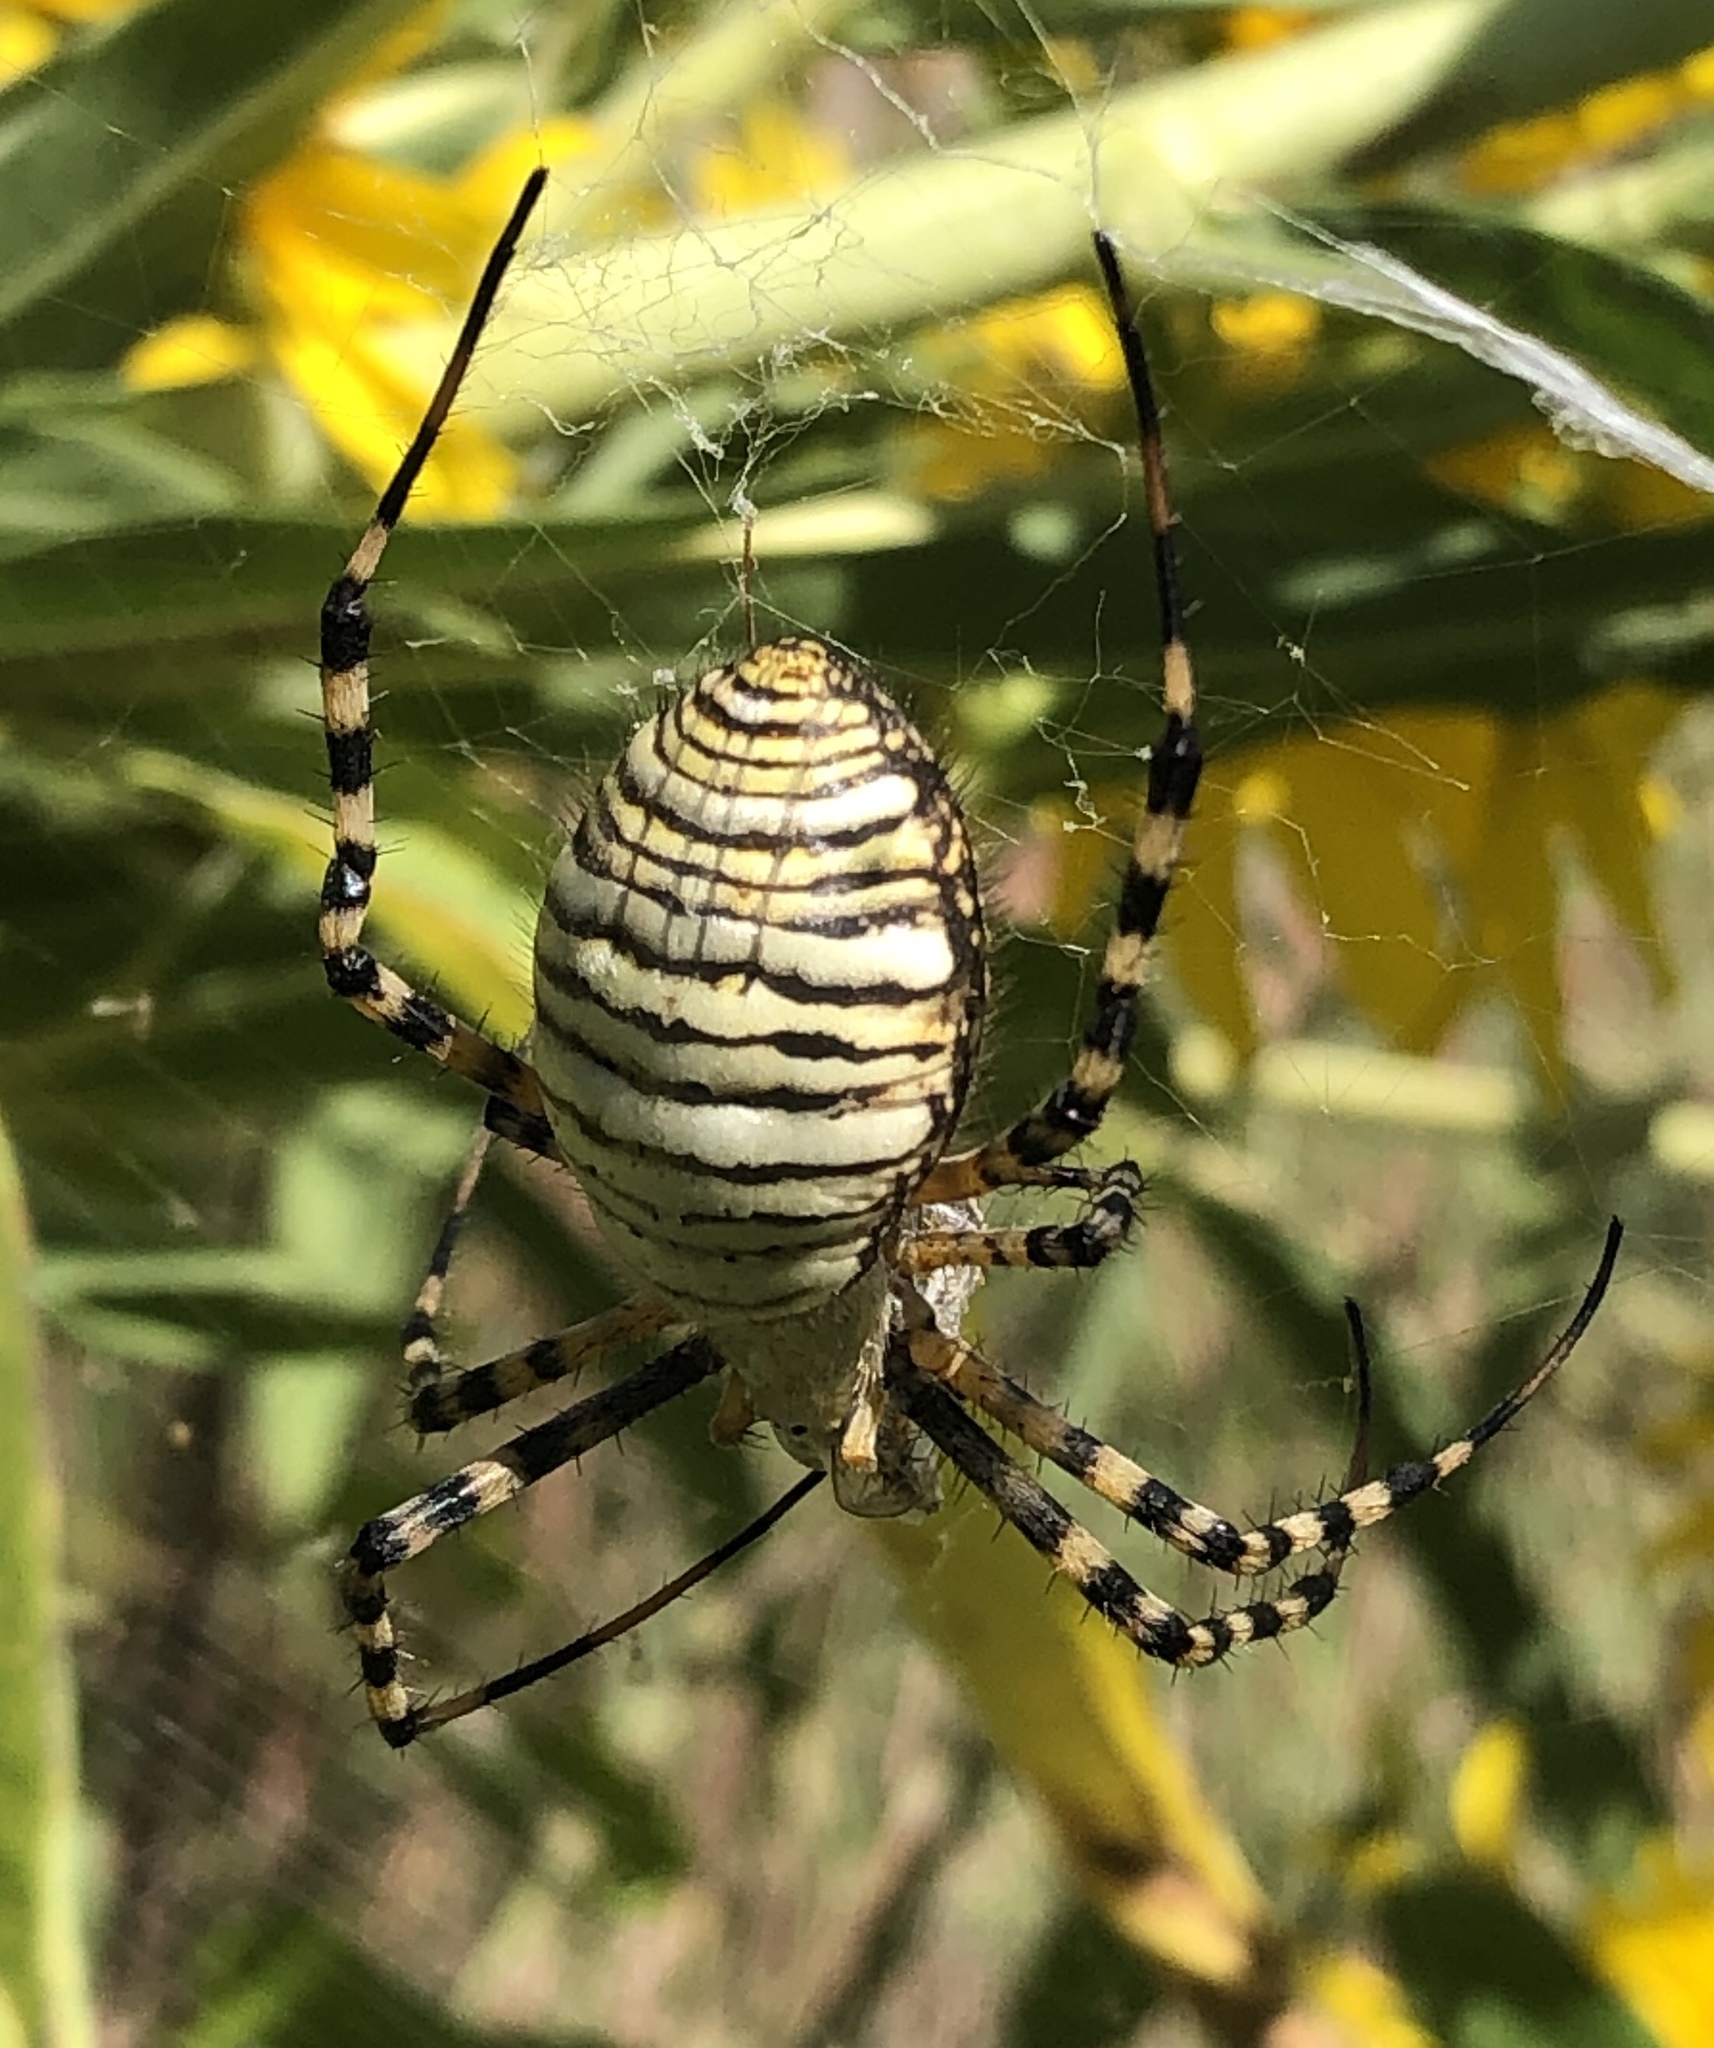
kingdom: Animalia
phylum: Arthropoda
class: Arachnida
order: Araneae
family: Araneidae
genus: Argiope
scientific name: Argiope trifasciata
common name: Banded garden spider
